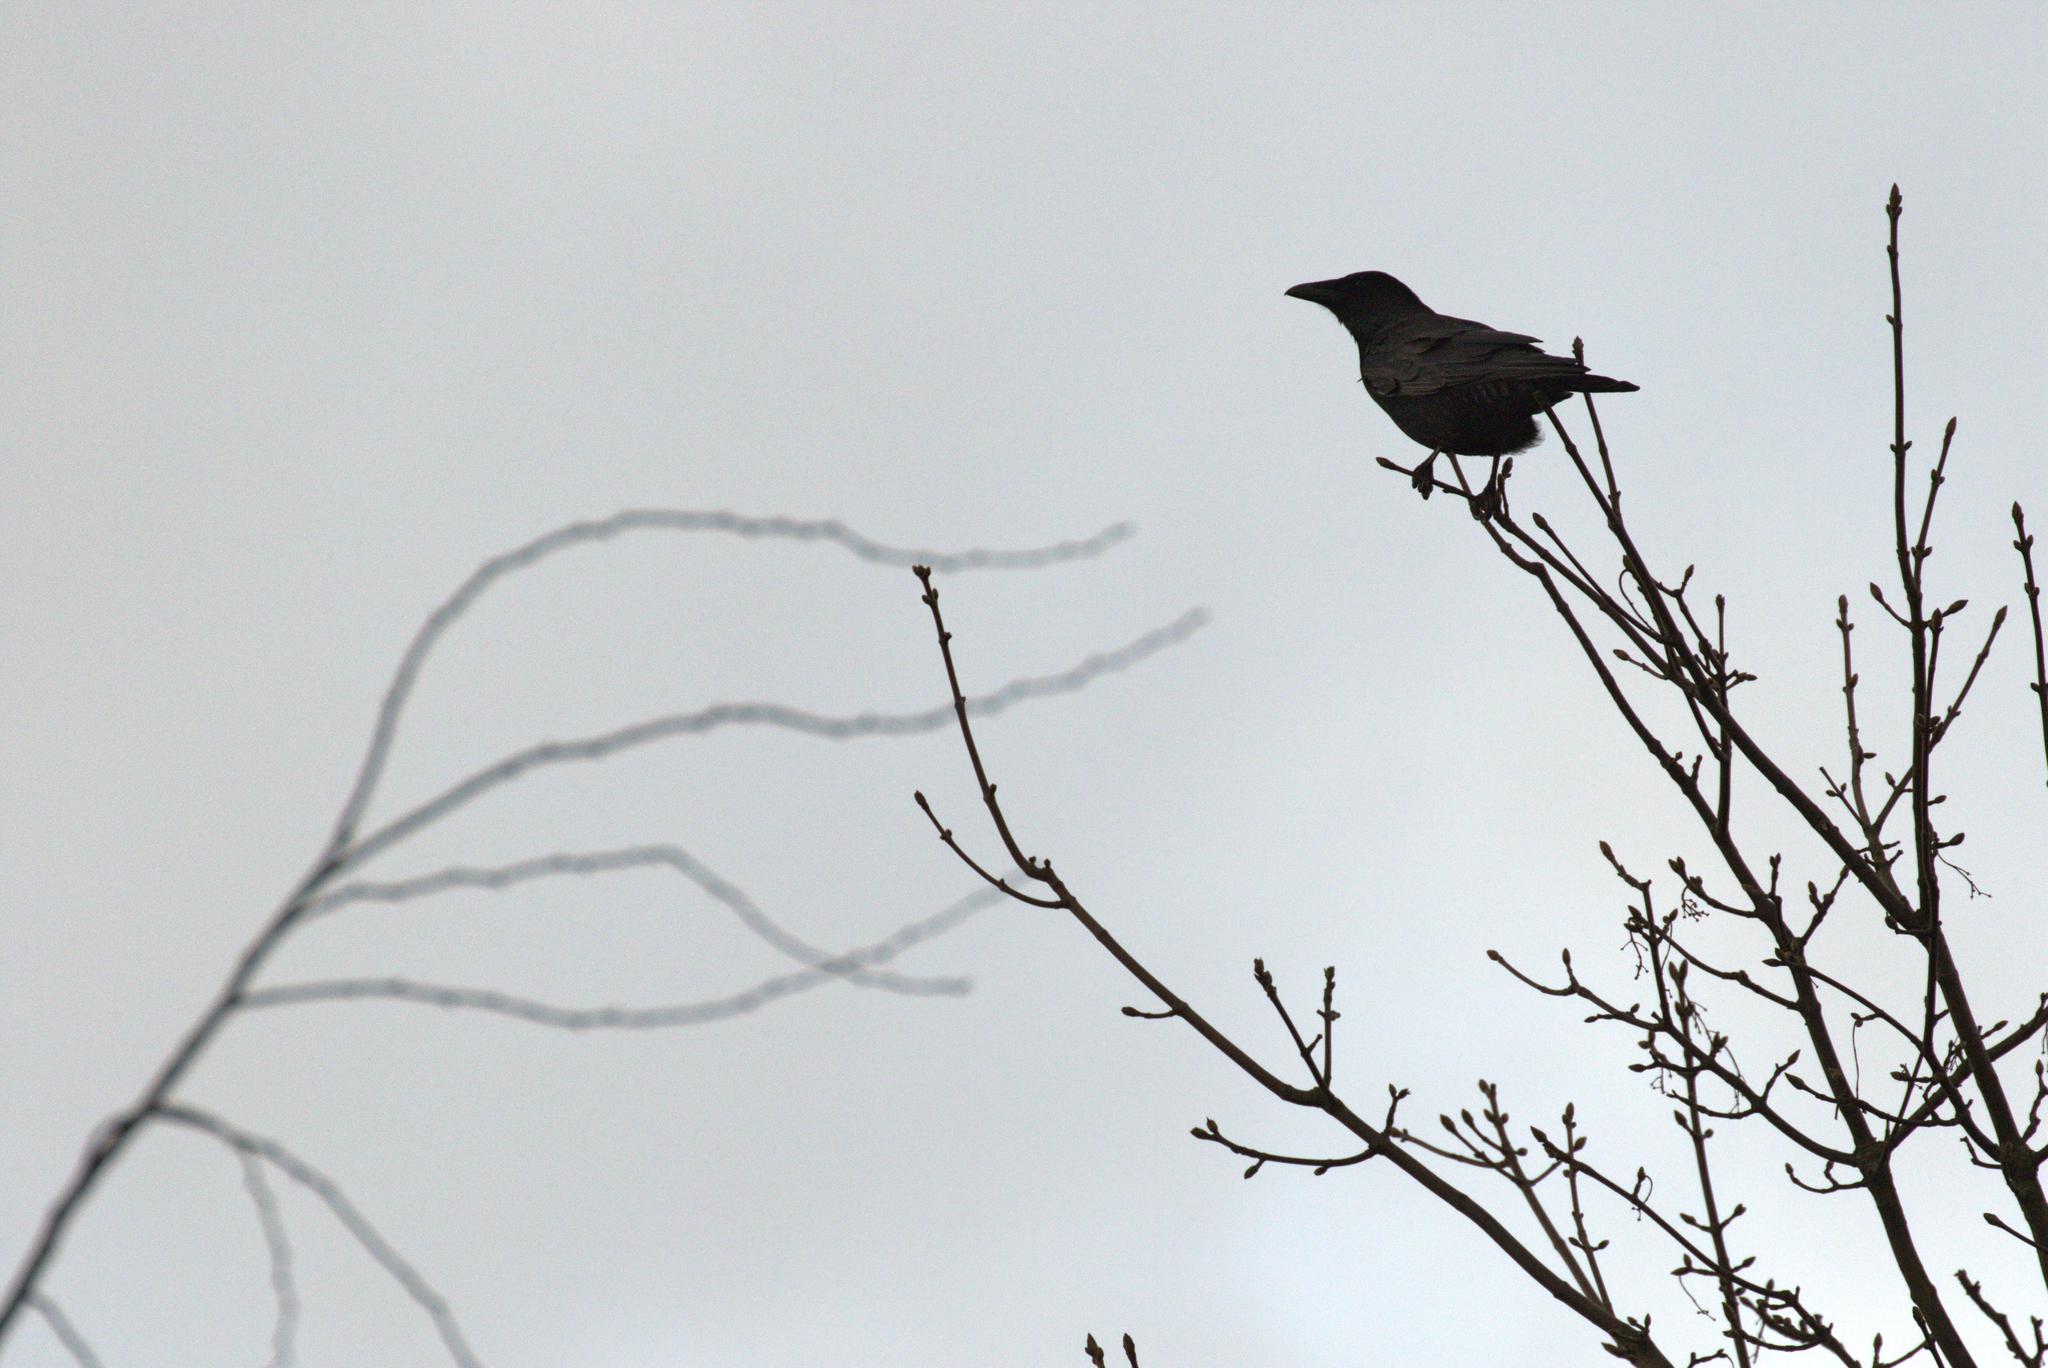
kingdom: Animalia
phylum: Chordata
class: Aves
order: Passeriformes
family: Corvidae
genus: Corvus
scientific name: Corvus corone
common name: Carrion crow
